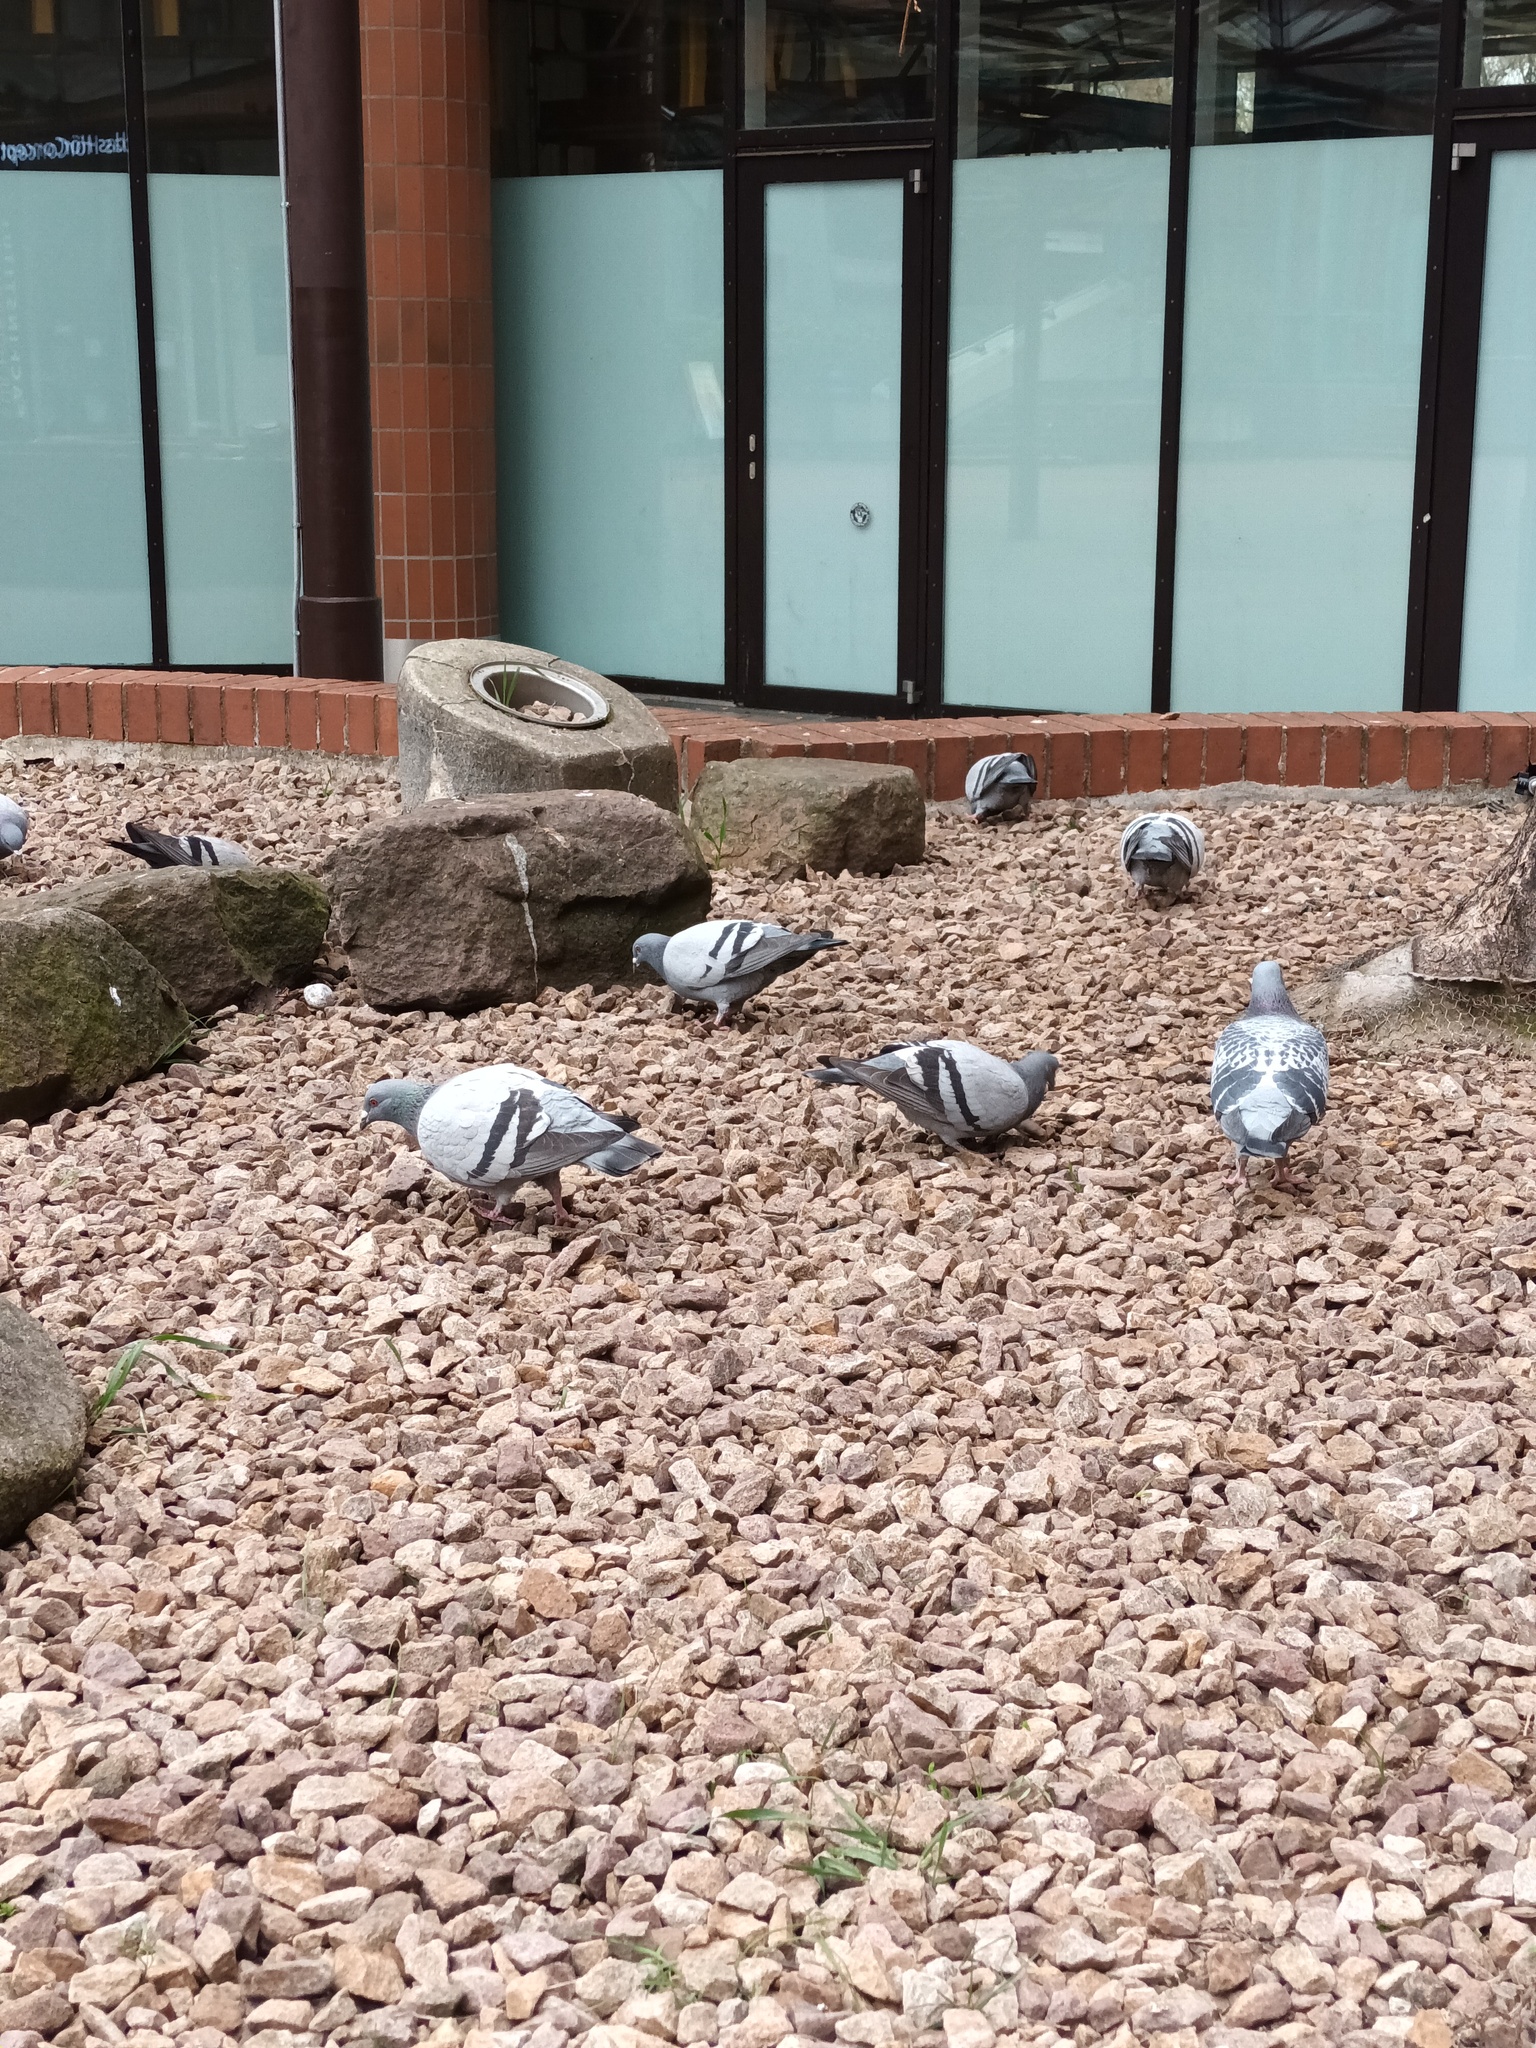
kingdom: Animalia
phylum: Chordata
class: Aves
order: Columbiformes
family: Columbidae
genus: Columba
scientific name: Columba livia
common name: Rock pigeon
